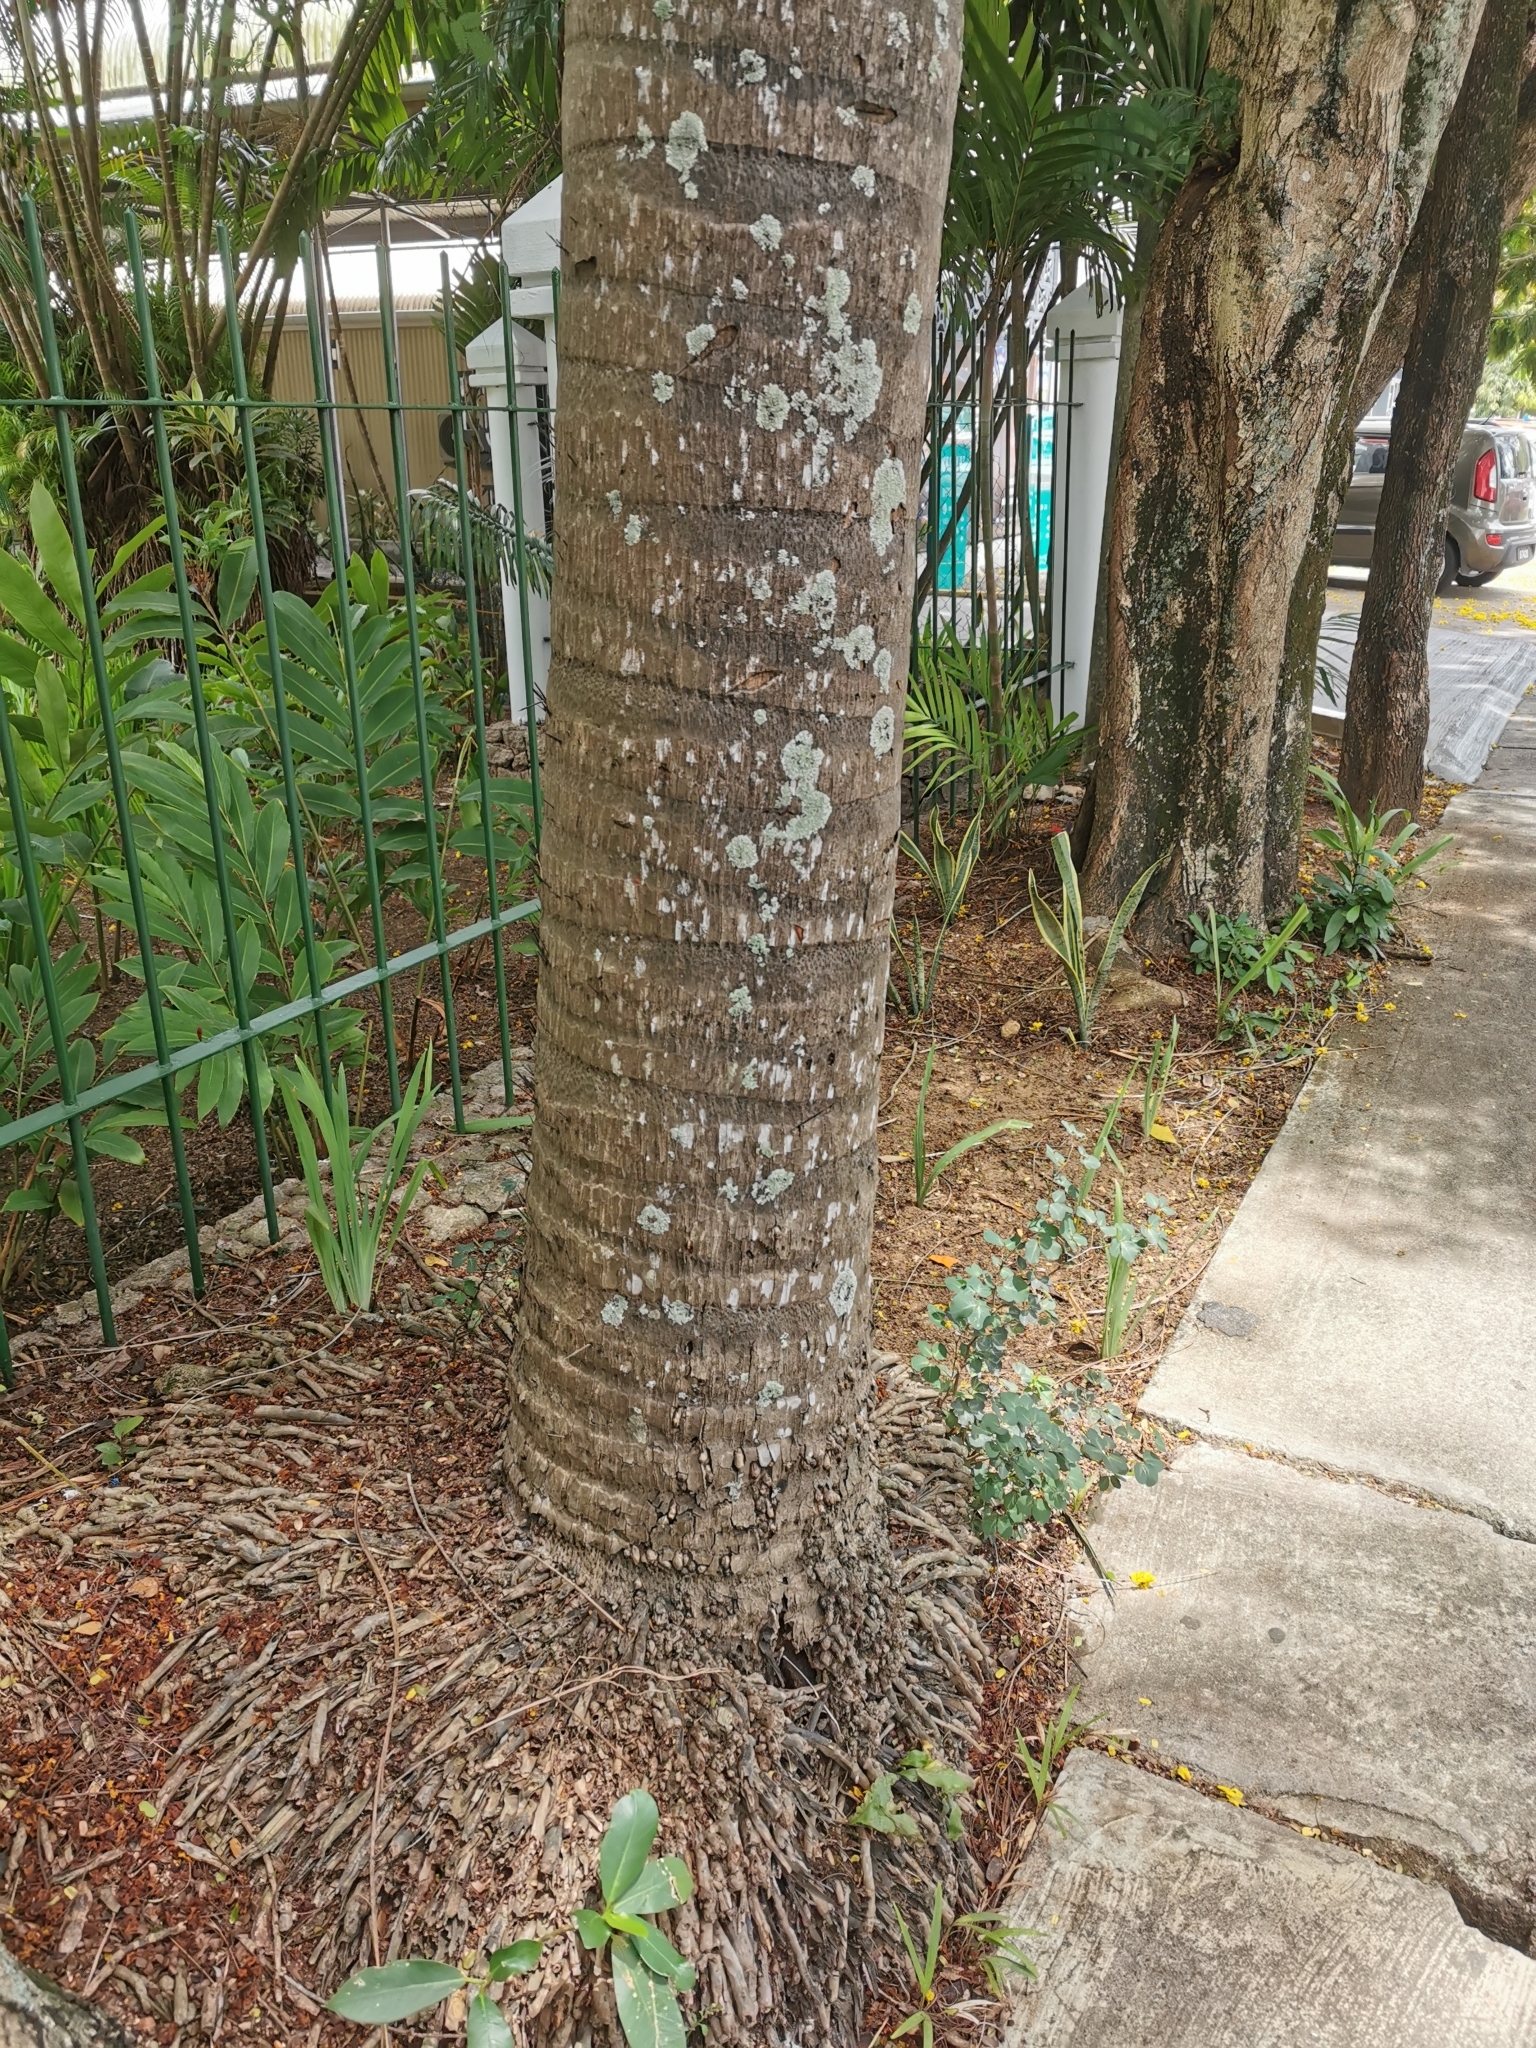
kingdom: Plantae
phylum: Tracheophyta
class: Liliopsida
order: Arecales
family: Arecaceae
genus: Acrocomia
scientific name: Acrocomia aculeata
